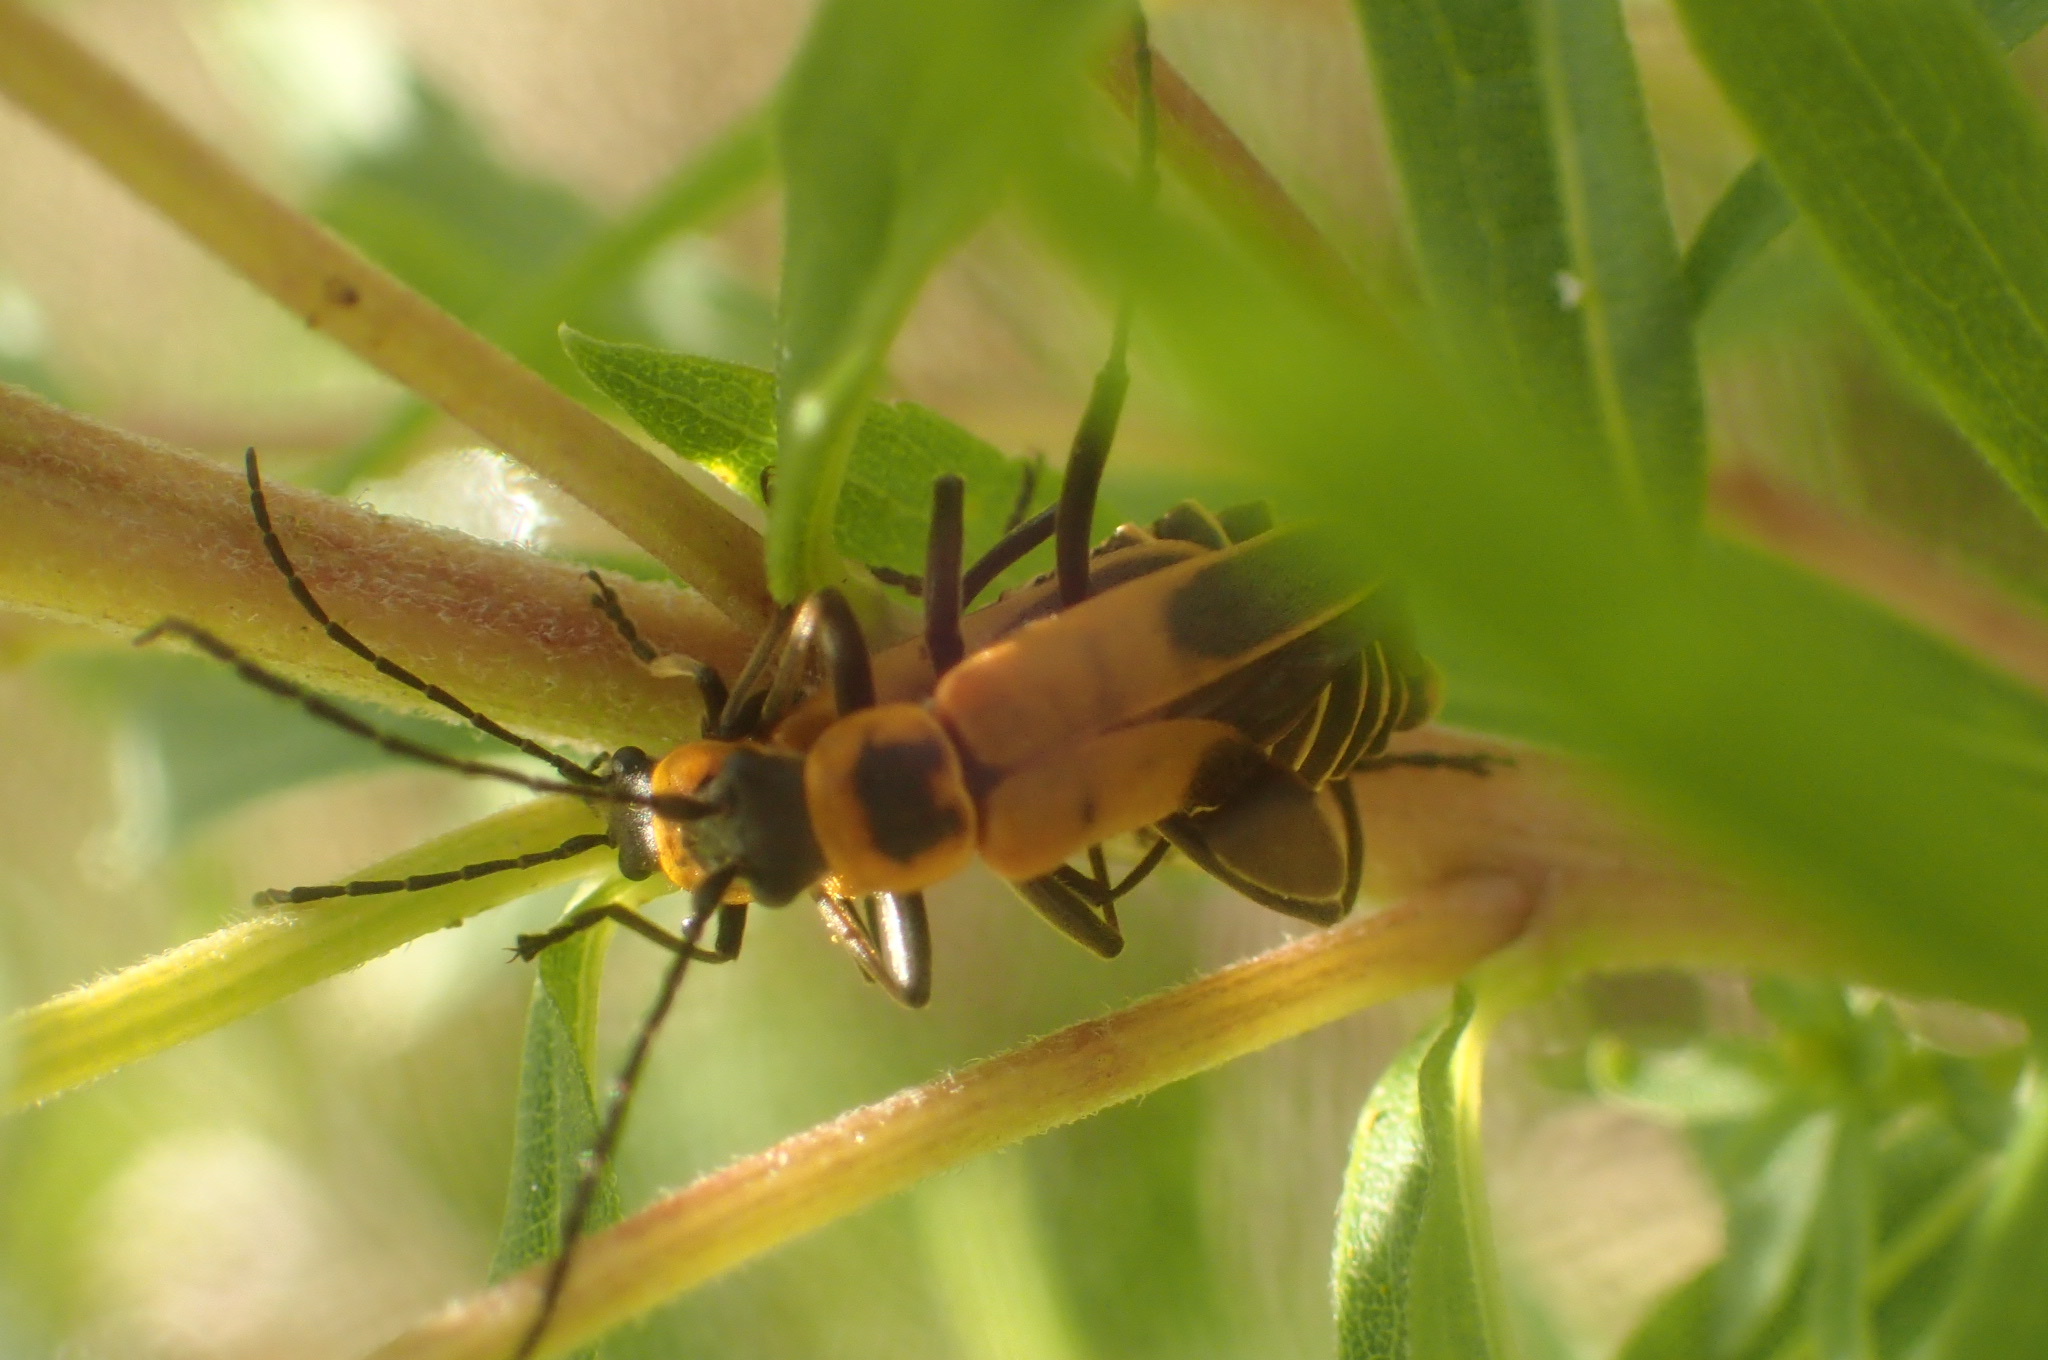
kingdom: Animalia
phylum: Arthropoda
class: Insecta
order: Coleoptera
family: Cantharidae
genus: Chauliognathus
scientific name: Chauliognathus pensylvanicus
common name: Goldenrod soldier beetle
